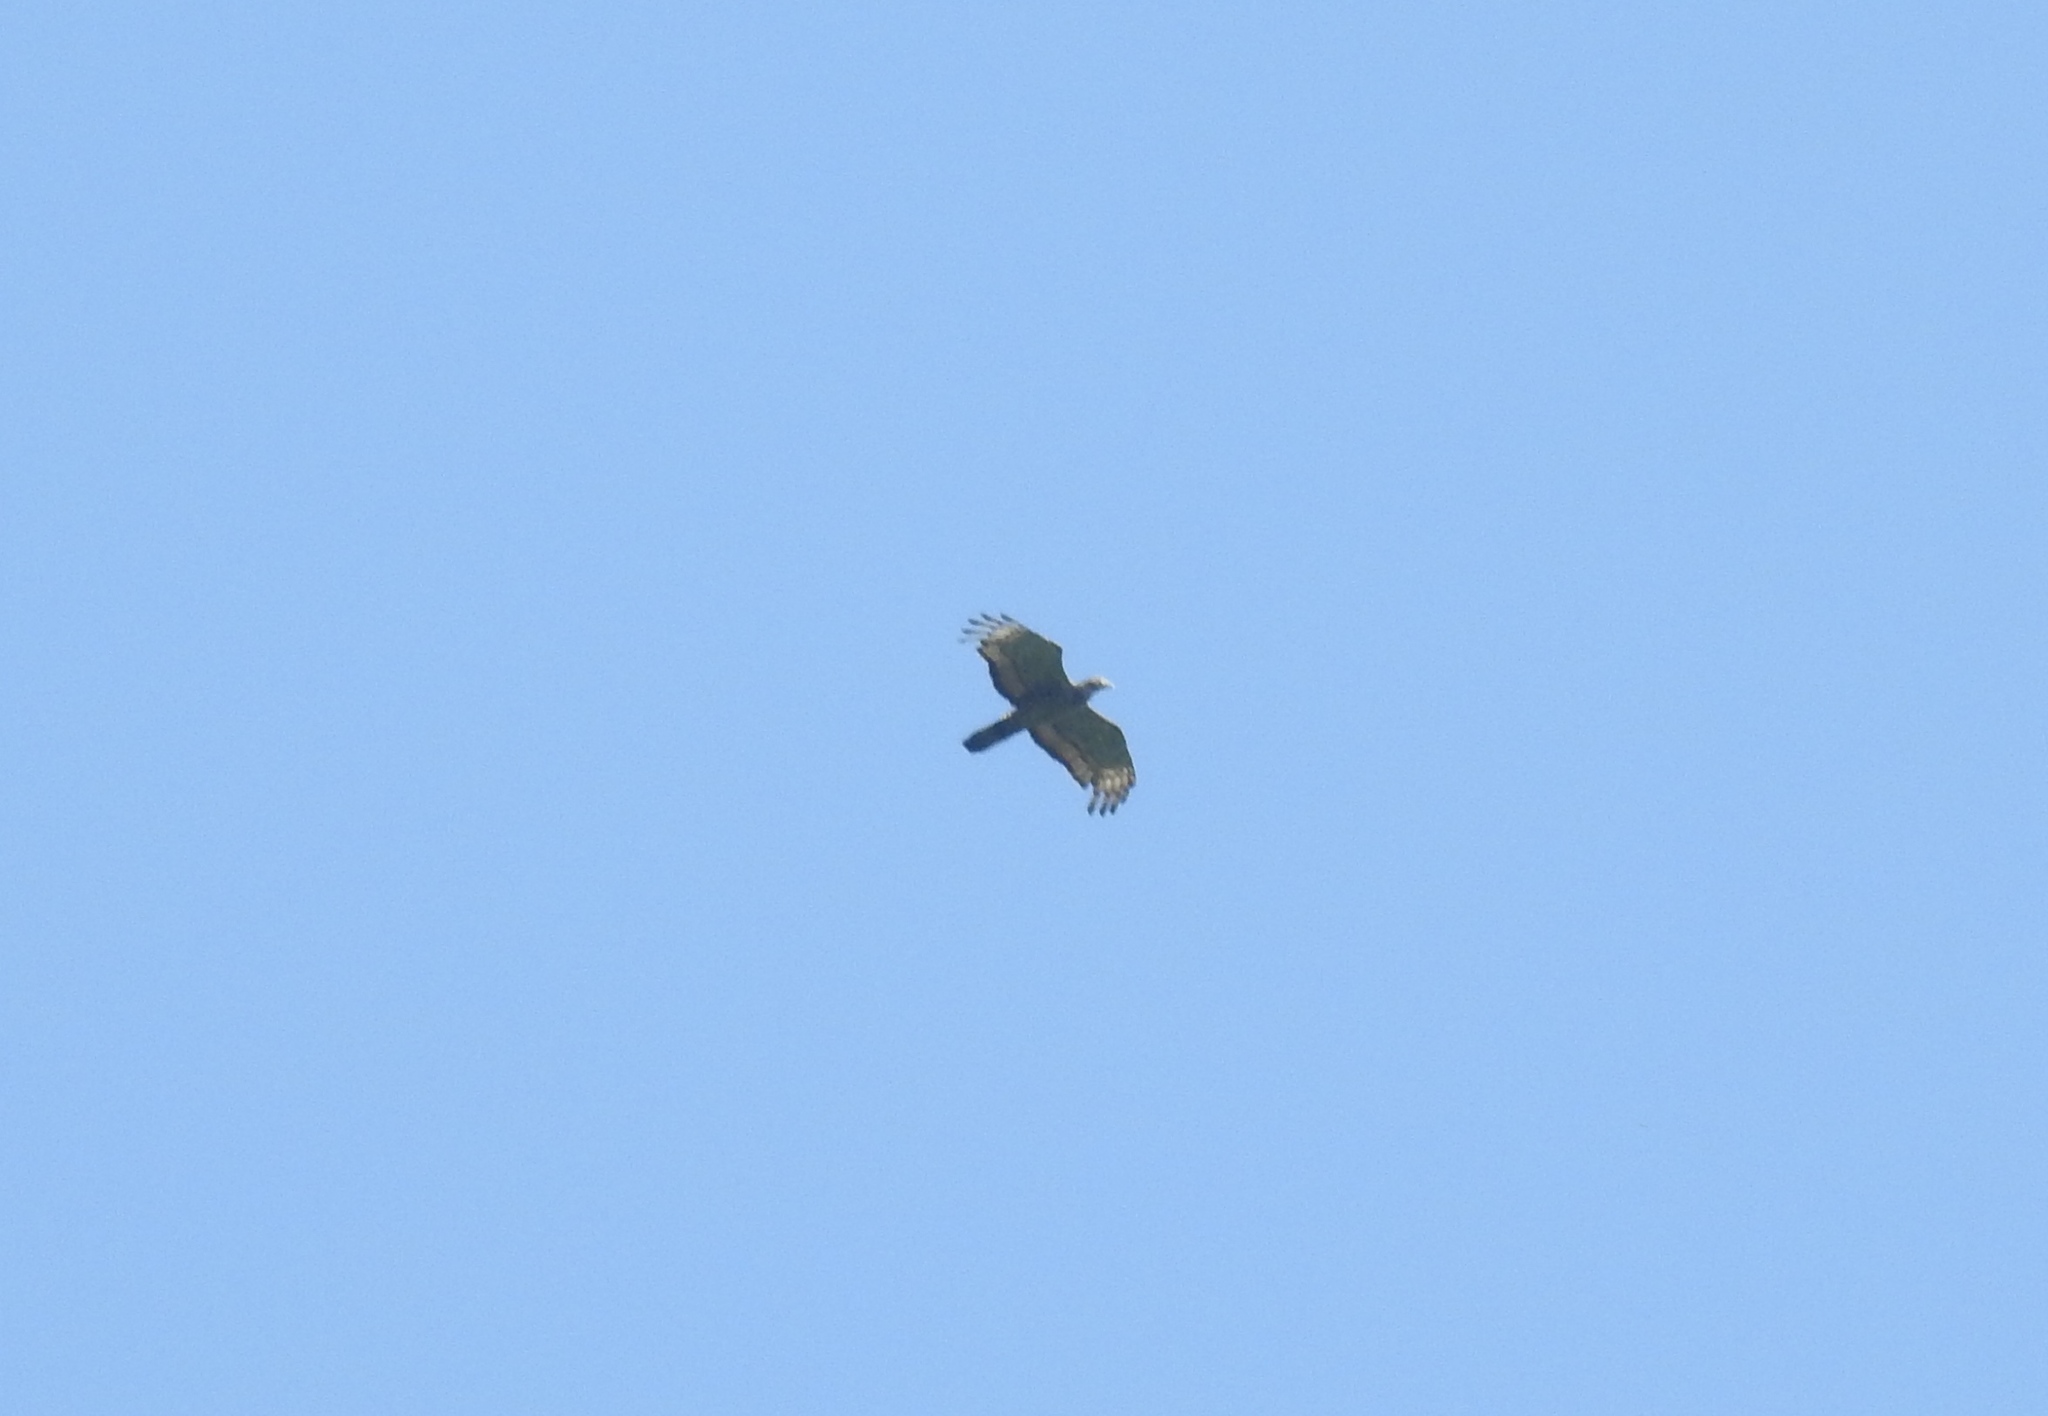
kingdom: Animalia
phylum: Chordata
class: Aves
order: Accipitriformes
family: Accipitridae
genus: Pernis
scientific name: Pernis ptilorhynchus
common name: Crested honey buzzard
